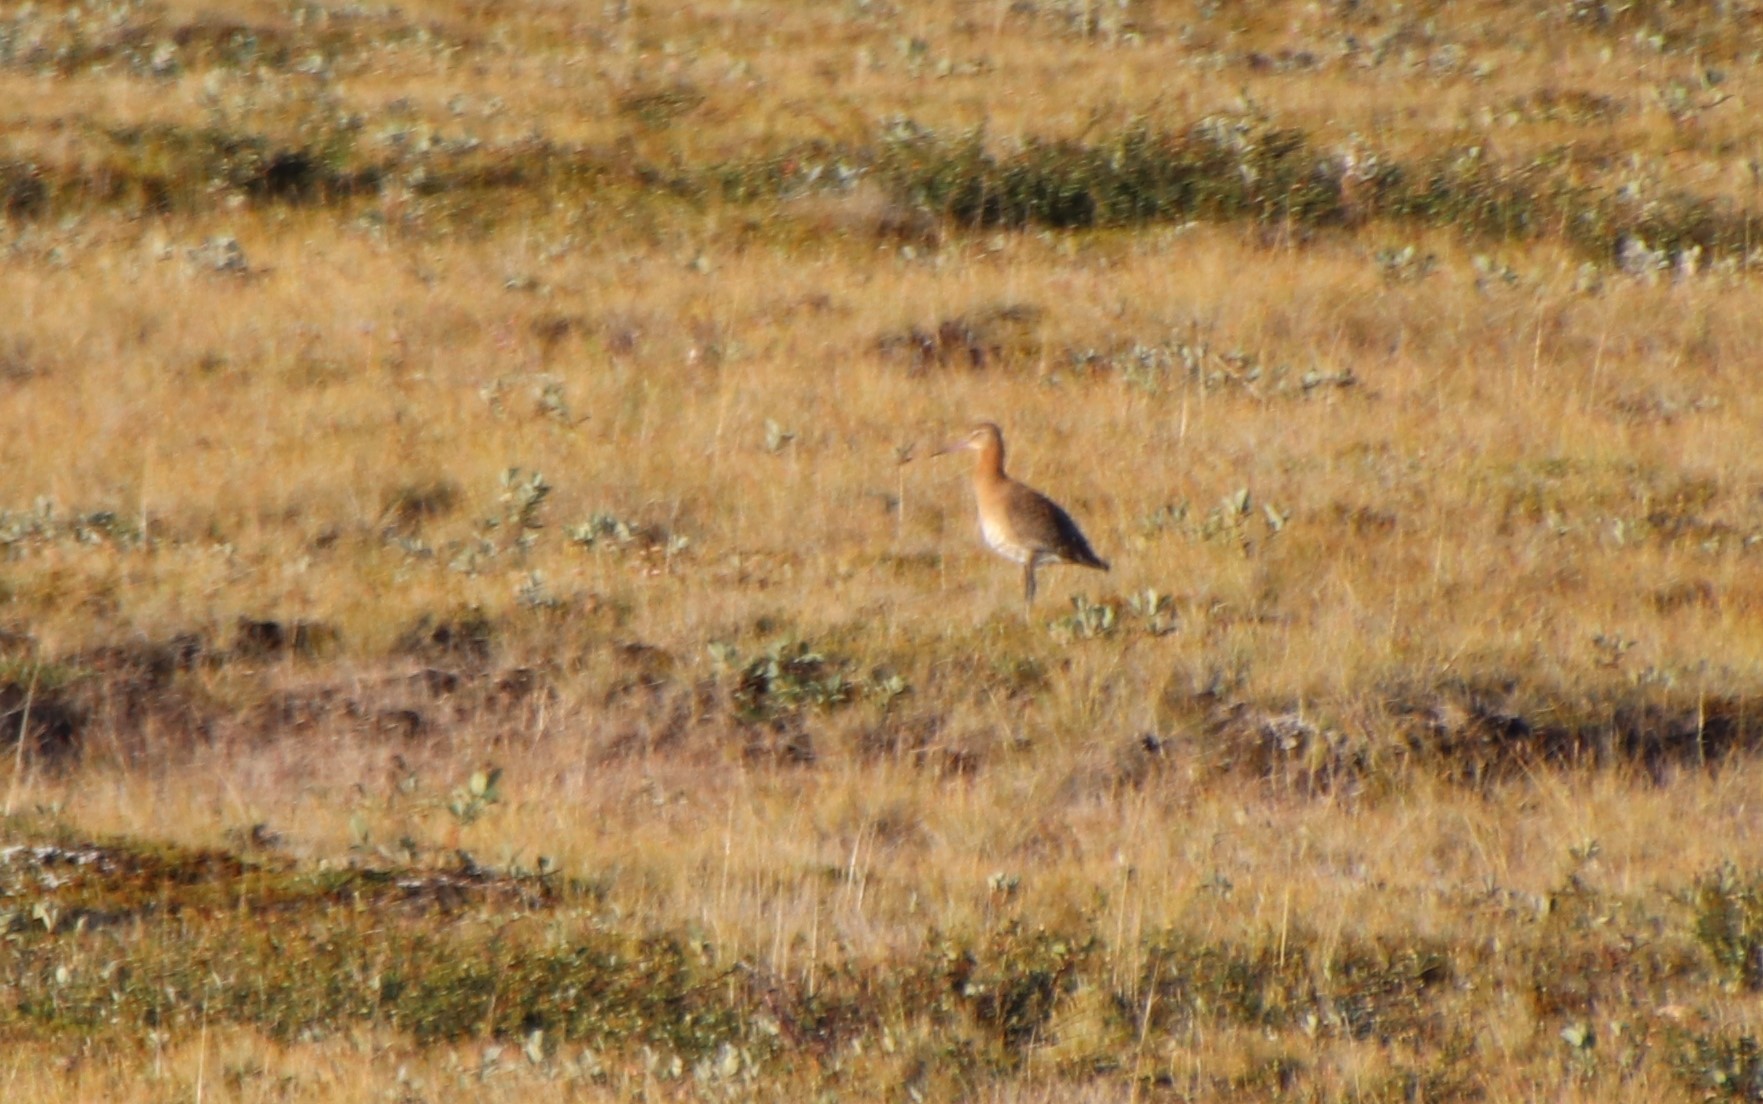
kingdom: Animalia
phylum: Chordata
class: Aves
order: Charadriiformes
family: Scolopacidae
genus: Limosa
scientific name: Limosa limosa
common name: Black-tailed godwit
